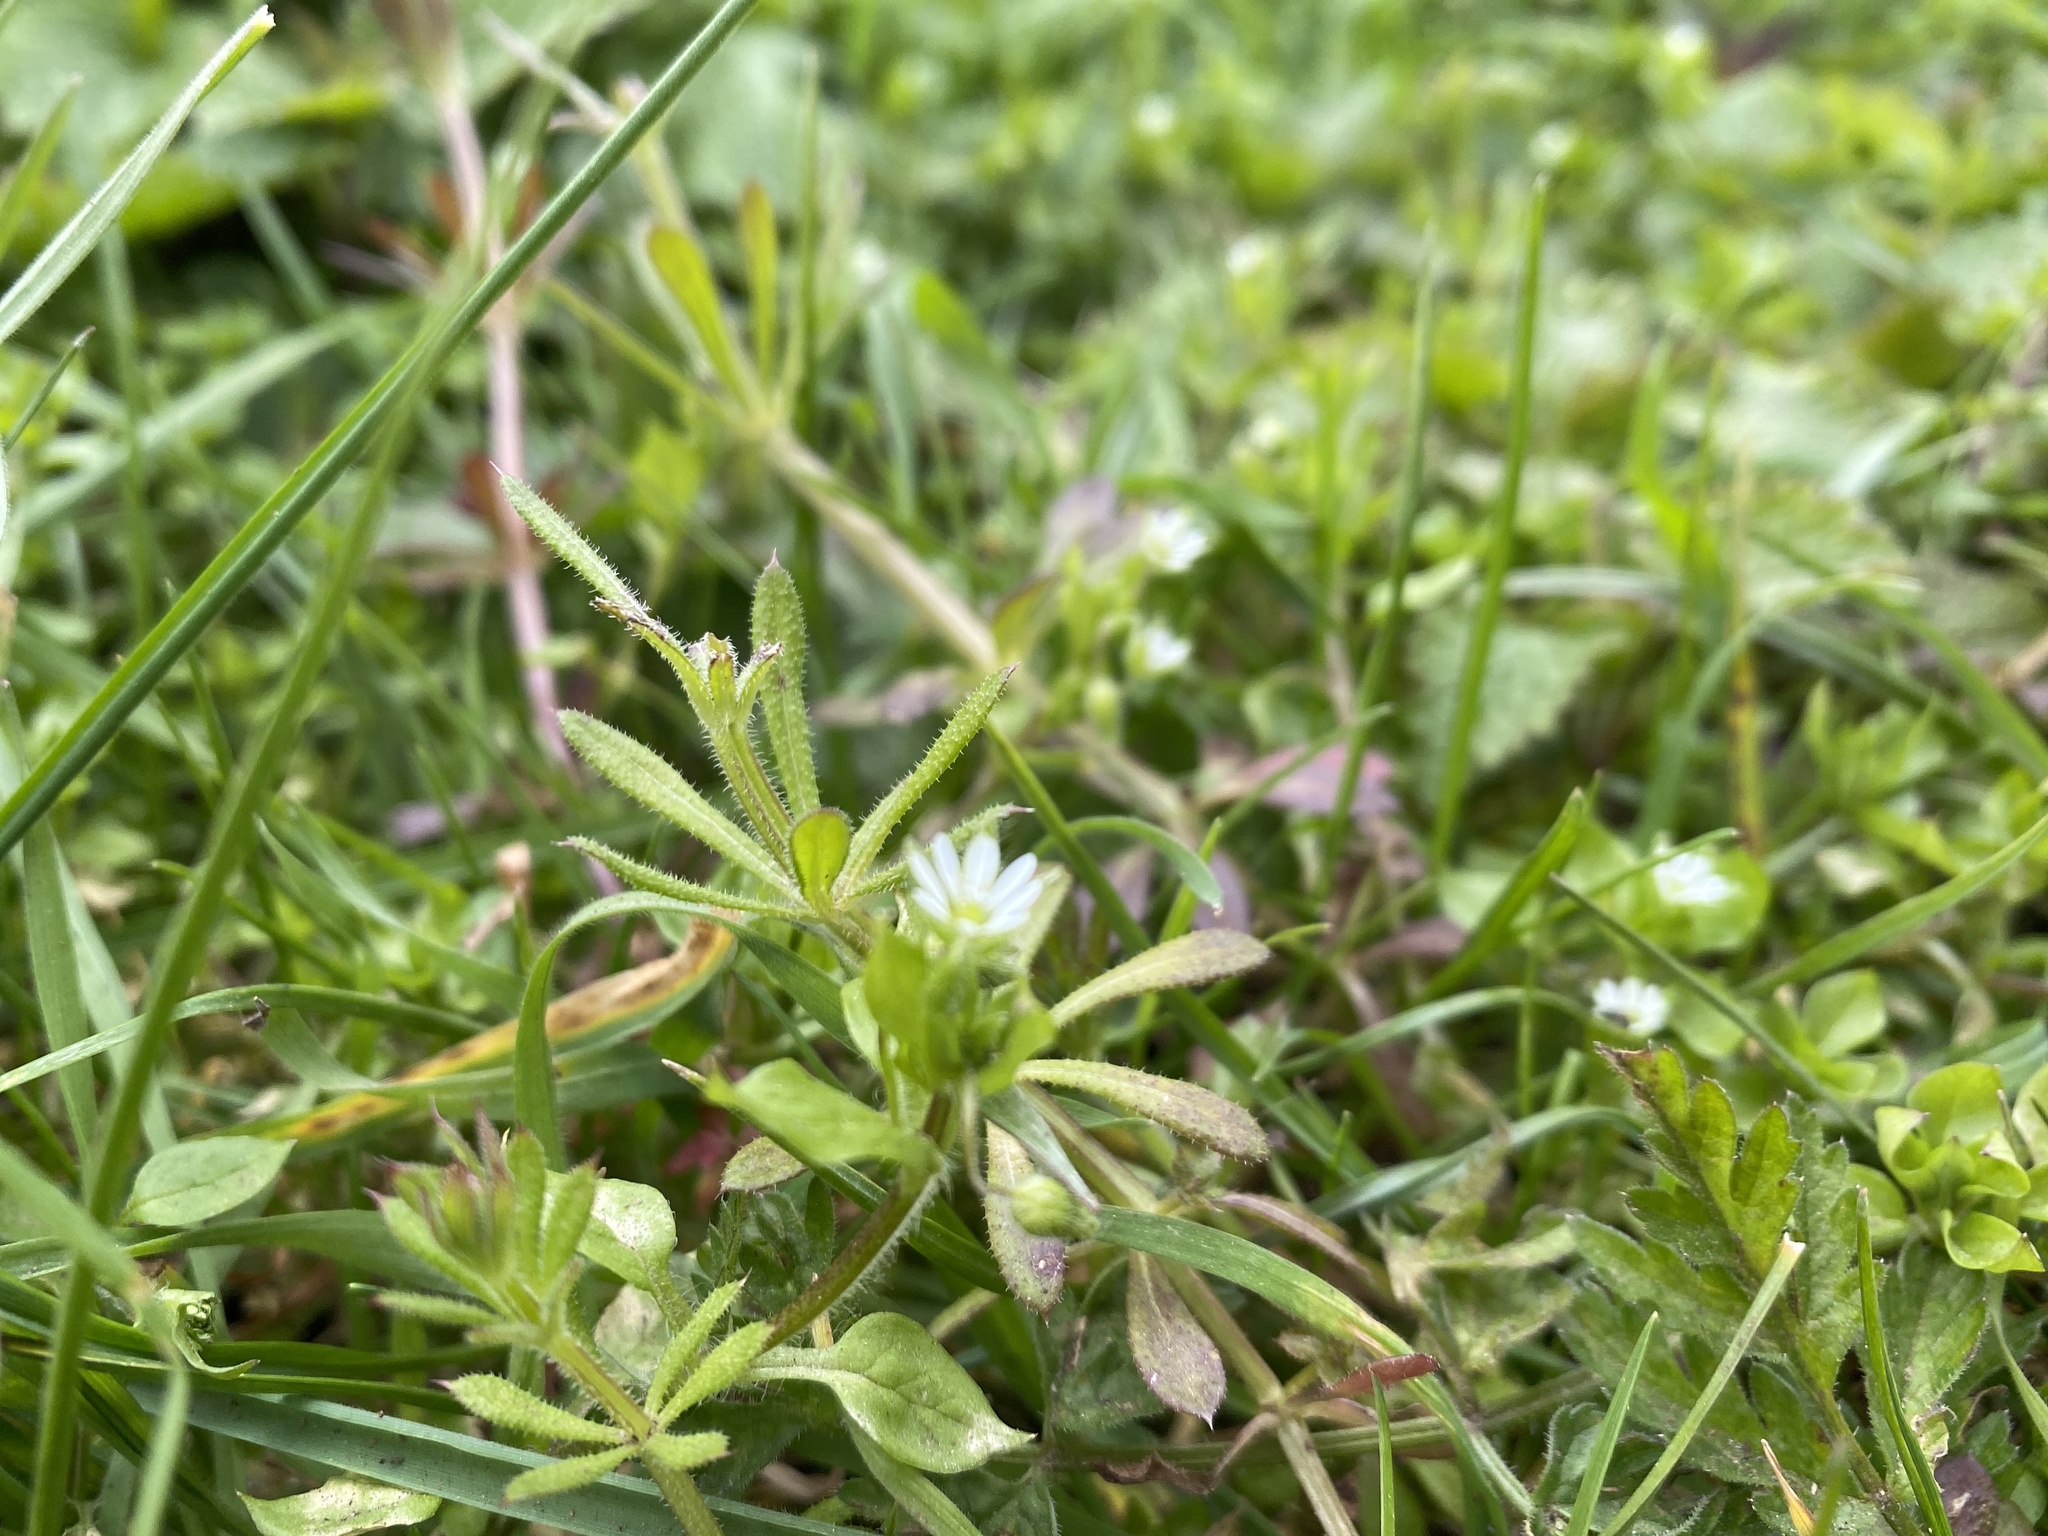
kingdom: Plantae
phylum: Tracheophyta
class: Magnoliopsida
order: Caryophyllales
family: Caryophyllaceae
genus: Stellaria
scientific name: Stellaria media
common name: Common chickweed
